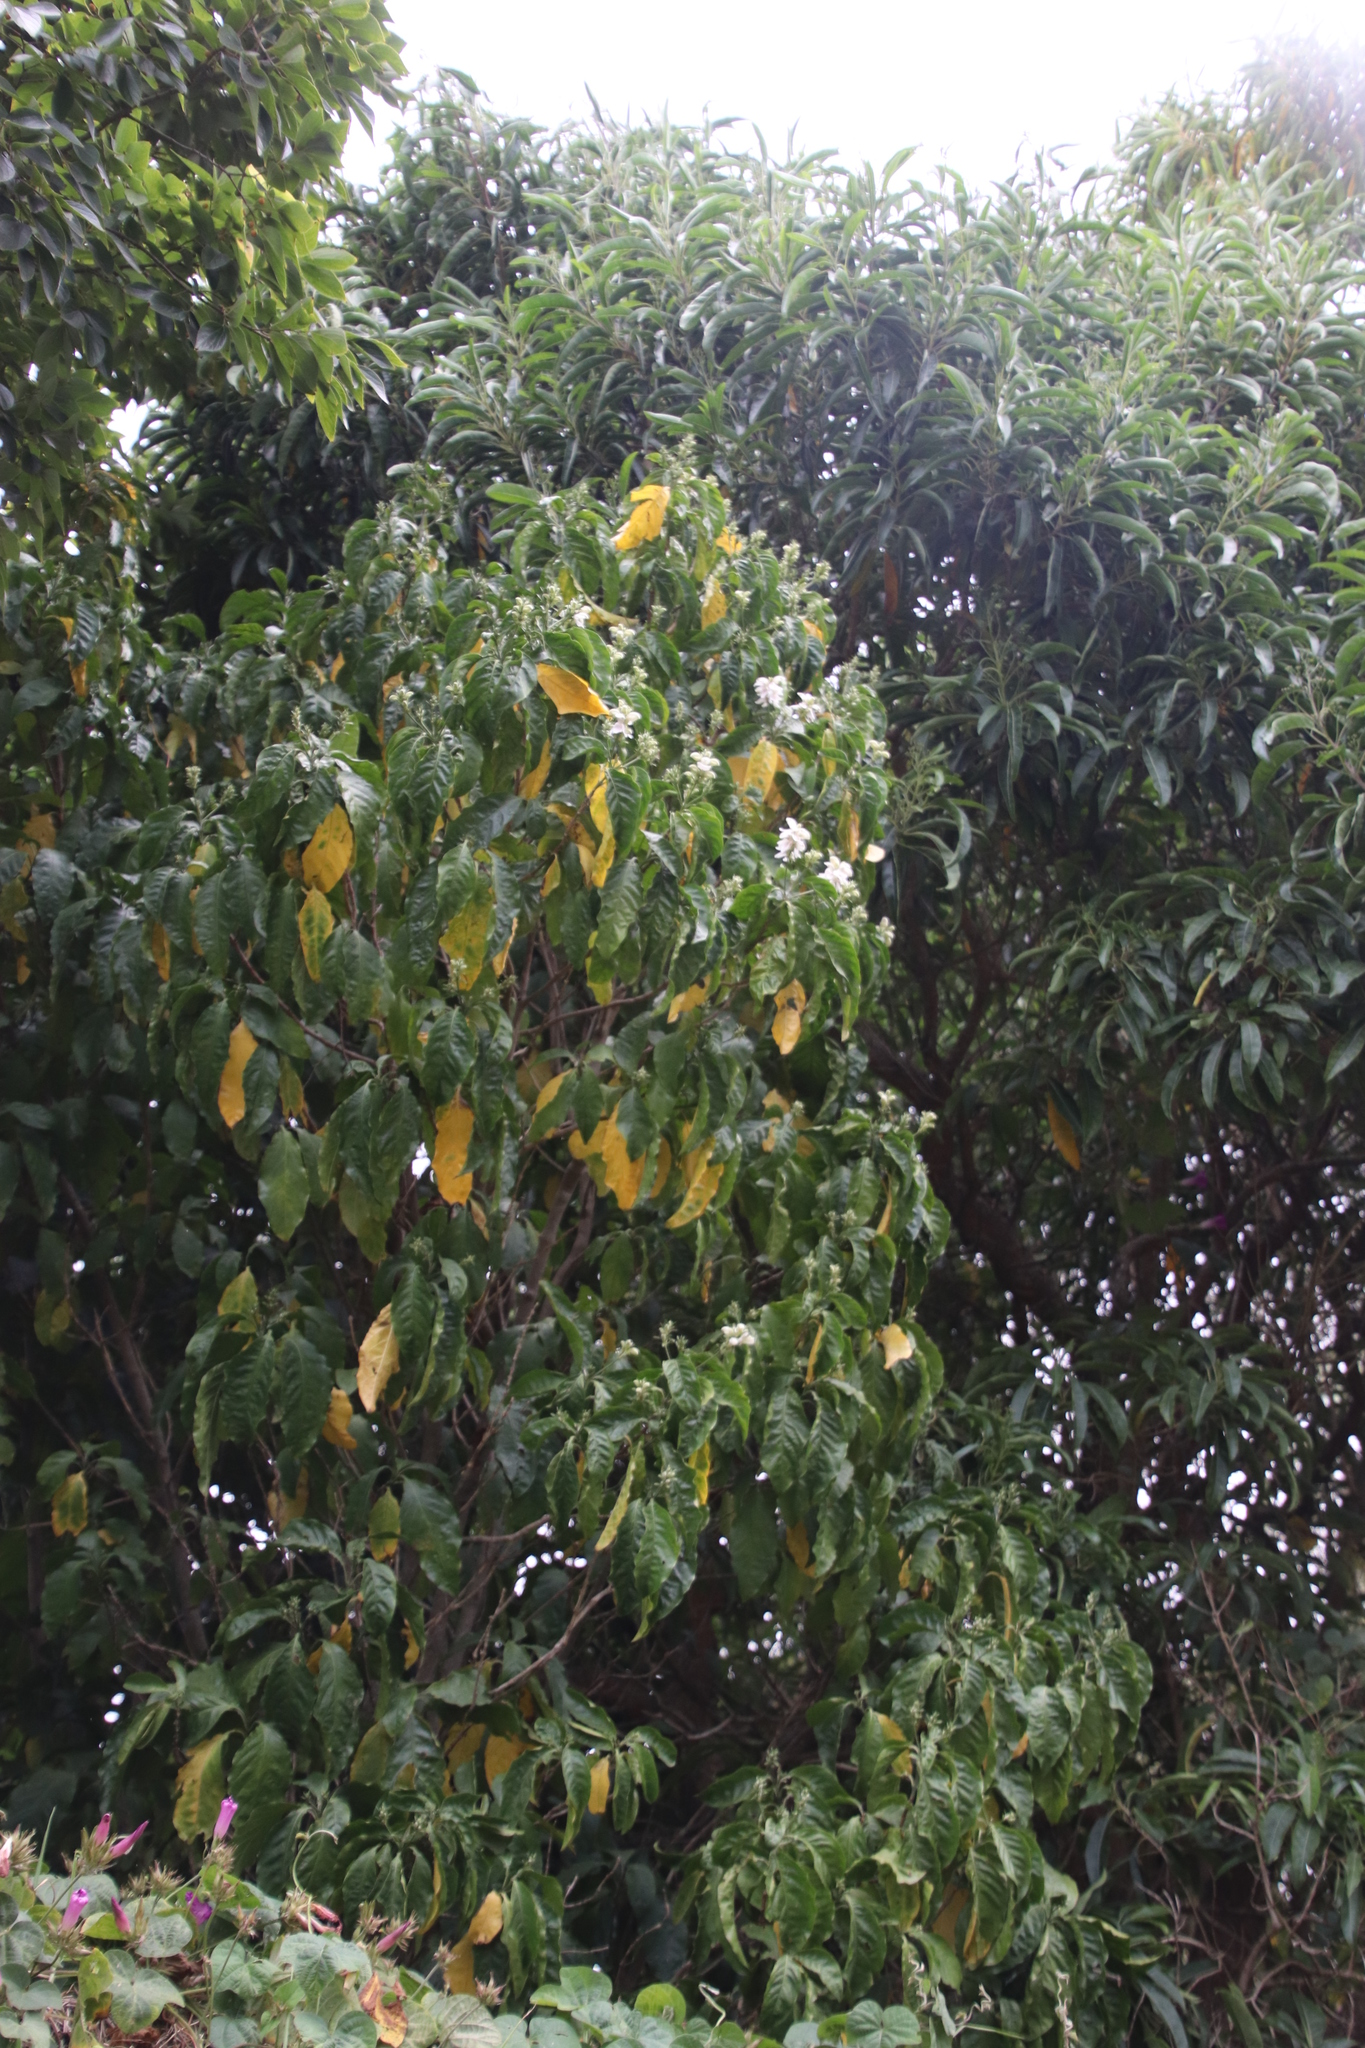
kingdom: Plantae
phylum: Tracheophyta
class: Magnoliopsida
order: Lamiales
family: Acanthaceae
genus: Justicia
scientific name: Justicia adhatodoides
